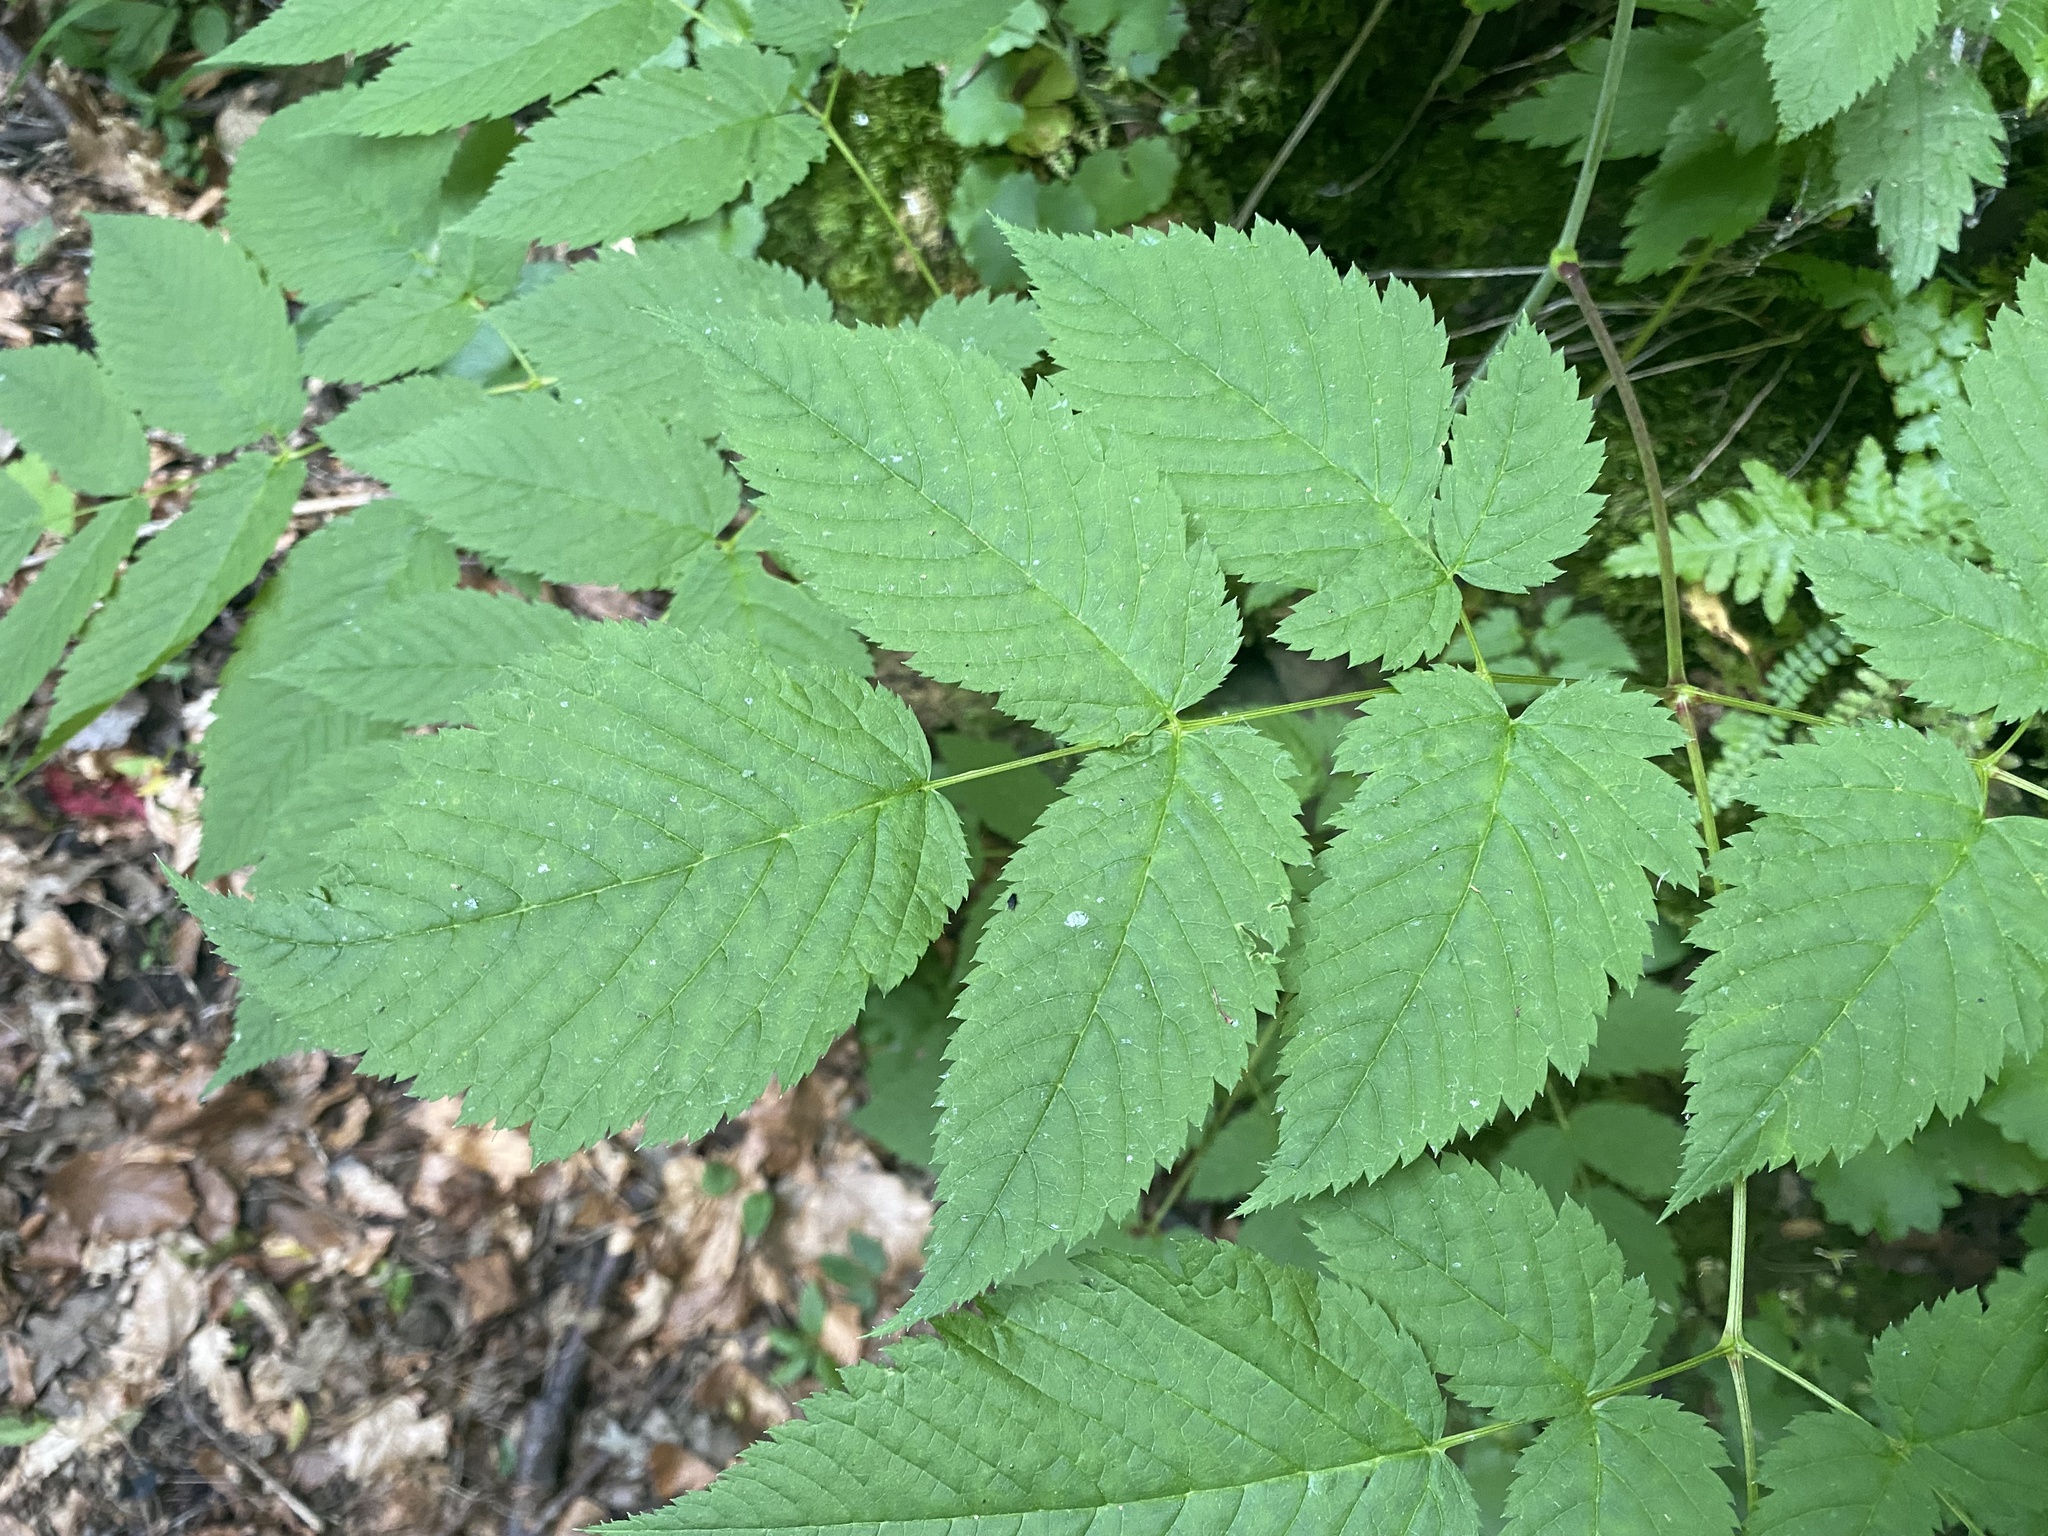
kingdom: Plantae
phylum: Tracheophyta
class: Magnoliopsida
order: Rosales
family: Rosaceae
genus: Aruncus
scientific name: Aruncus dioicus
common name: Buck's-beard
